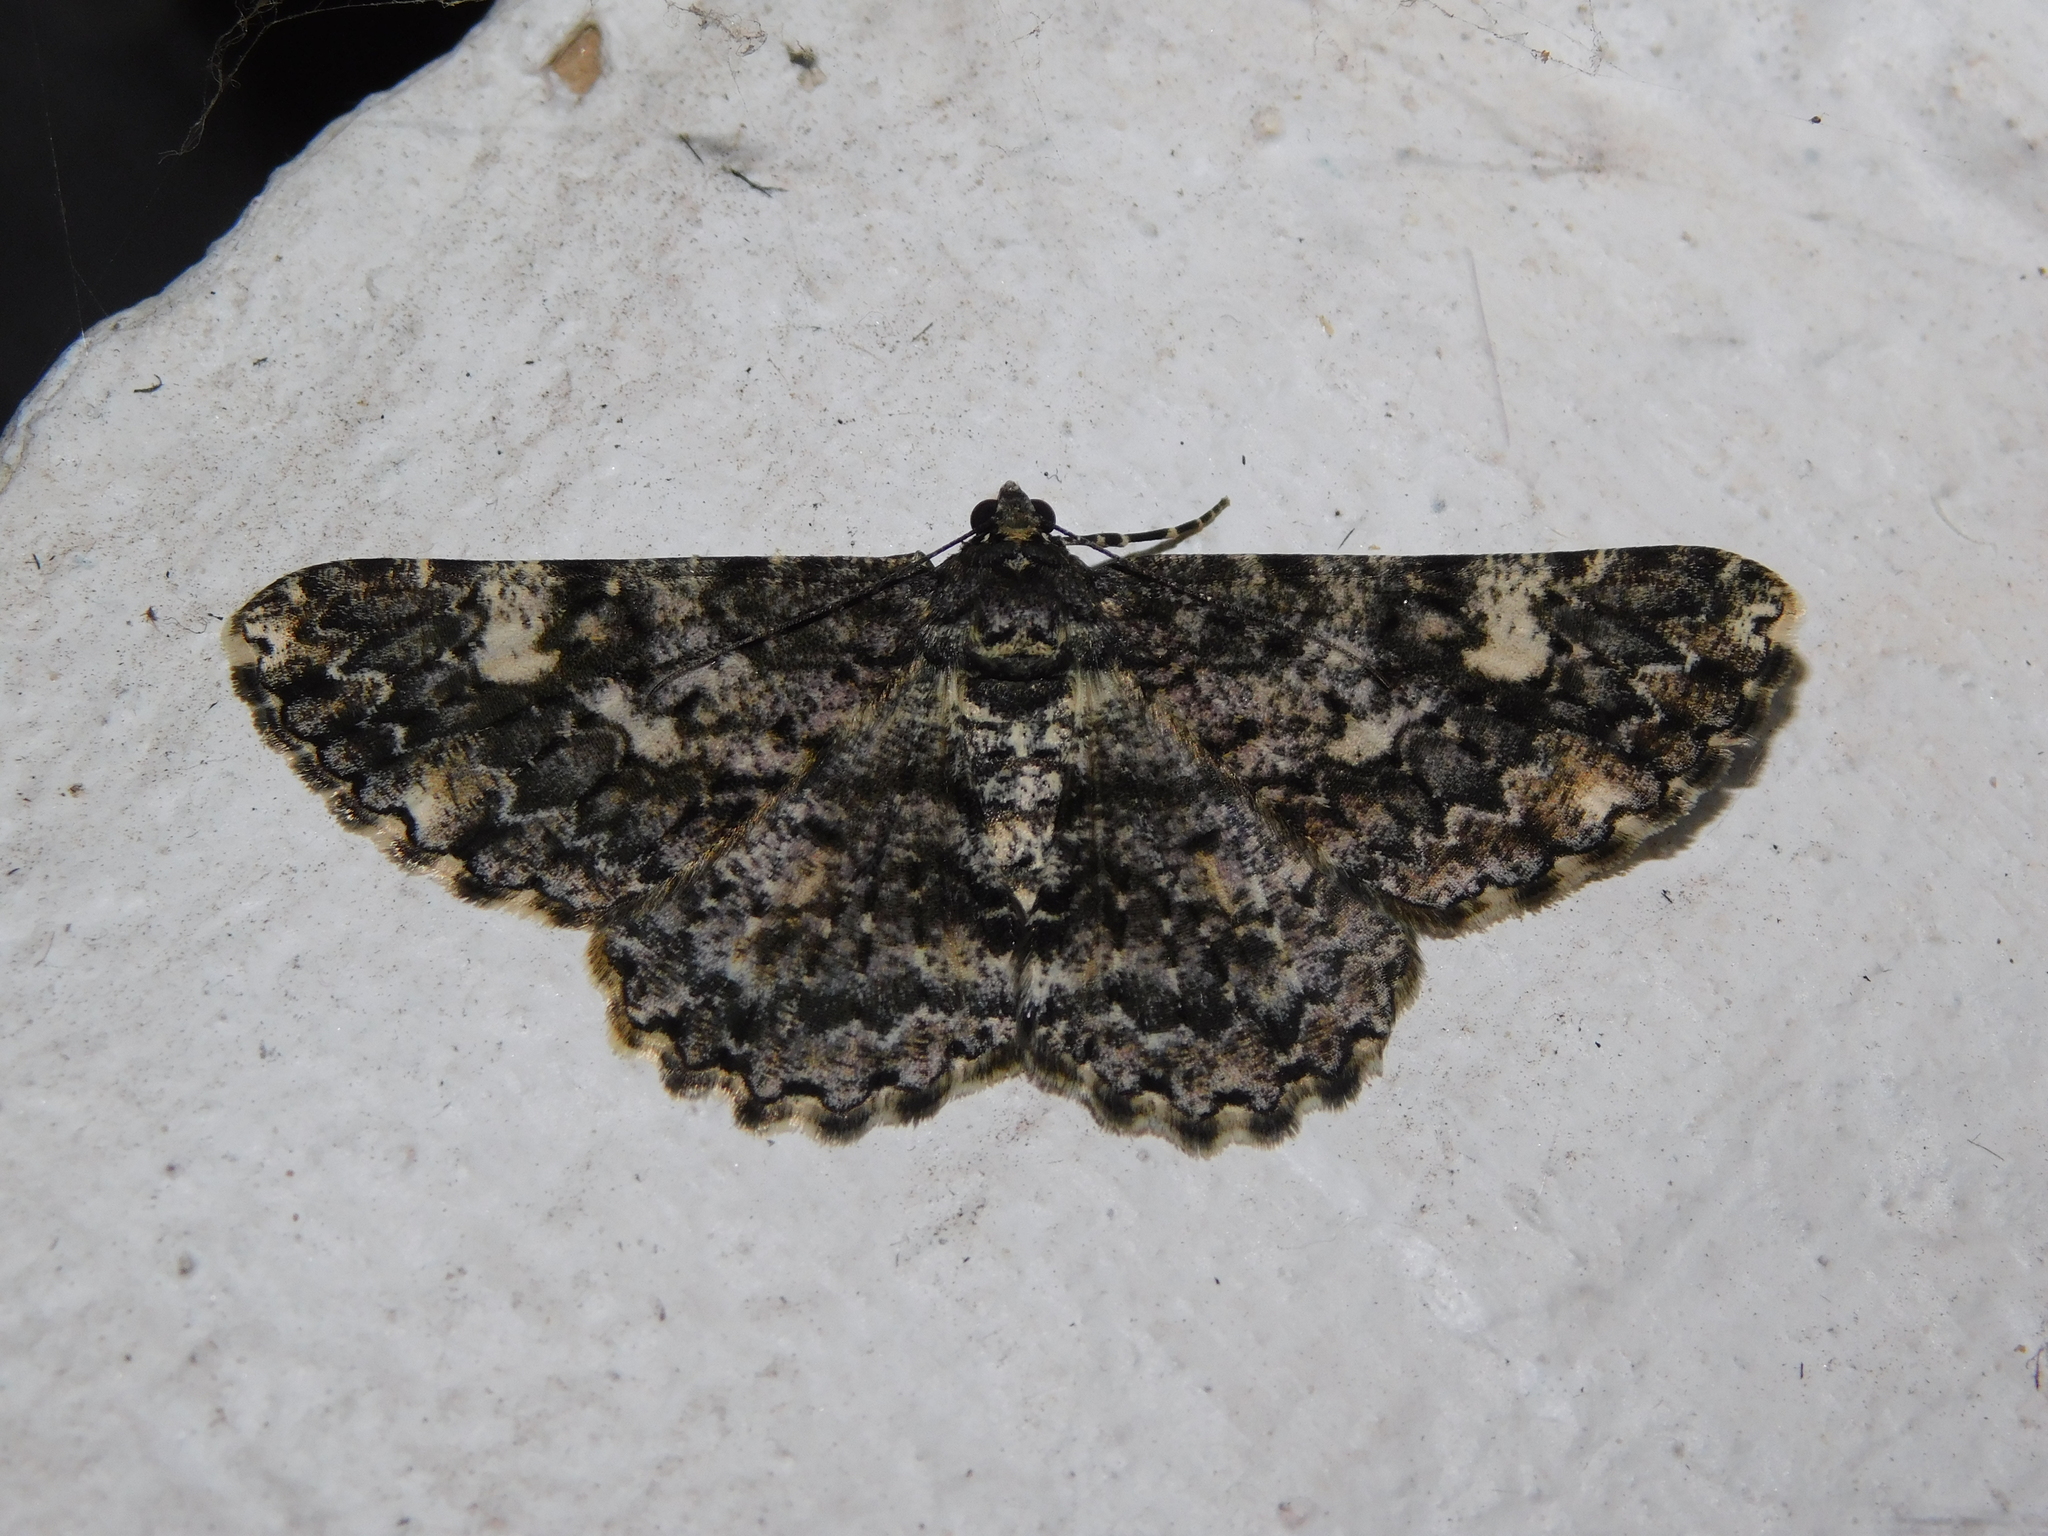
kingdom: Animalia
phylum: Arthropoda
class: Insecta
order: Lepidoptera
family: Geometridae
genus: Alcis
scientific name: Alcis nilgirica
